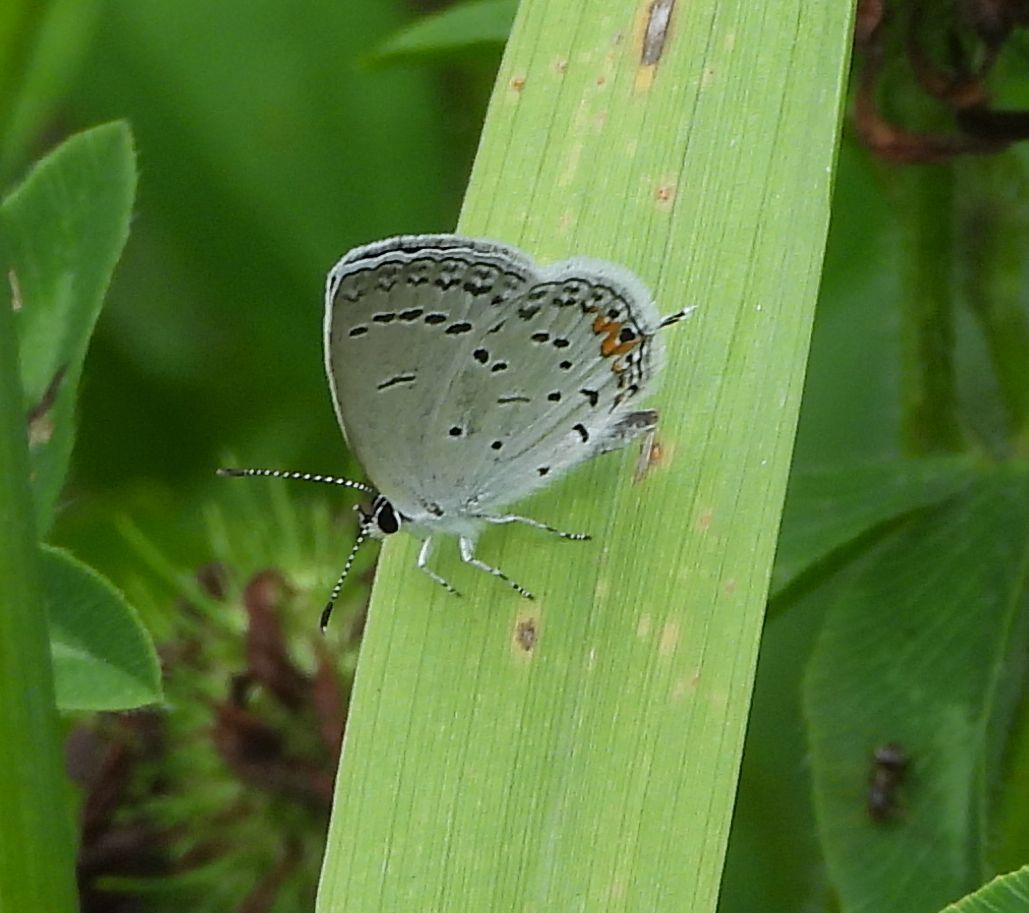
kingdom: Animalia
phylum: Arthropoda
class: Insecta
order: Lepidoptera
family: Lycaenidae
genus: Elkalyce
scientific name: Elkalyce comyntas
